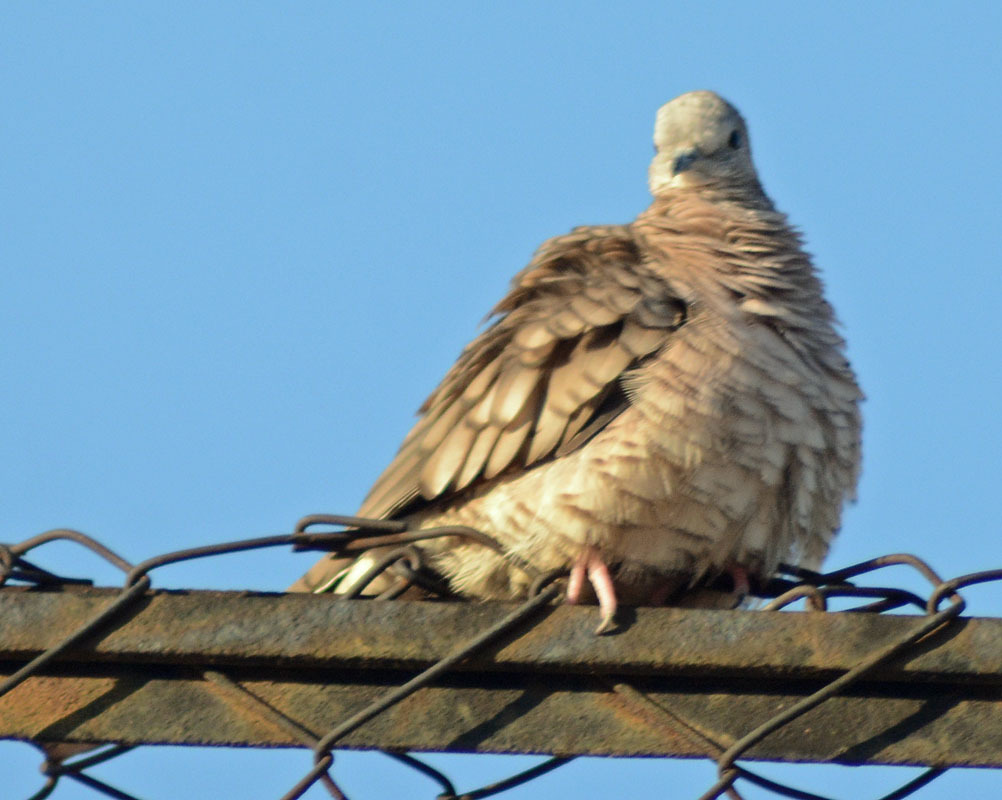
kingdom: Animalia
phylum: Chordata
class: Aves
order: Columbiformes
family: Columbidae
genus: Columbina
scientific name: Columbina inca
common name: Inca dove
